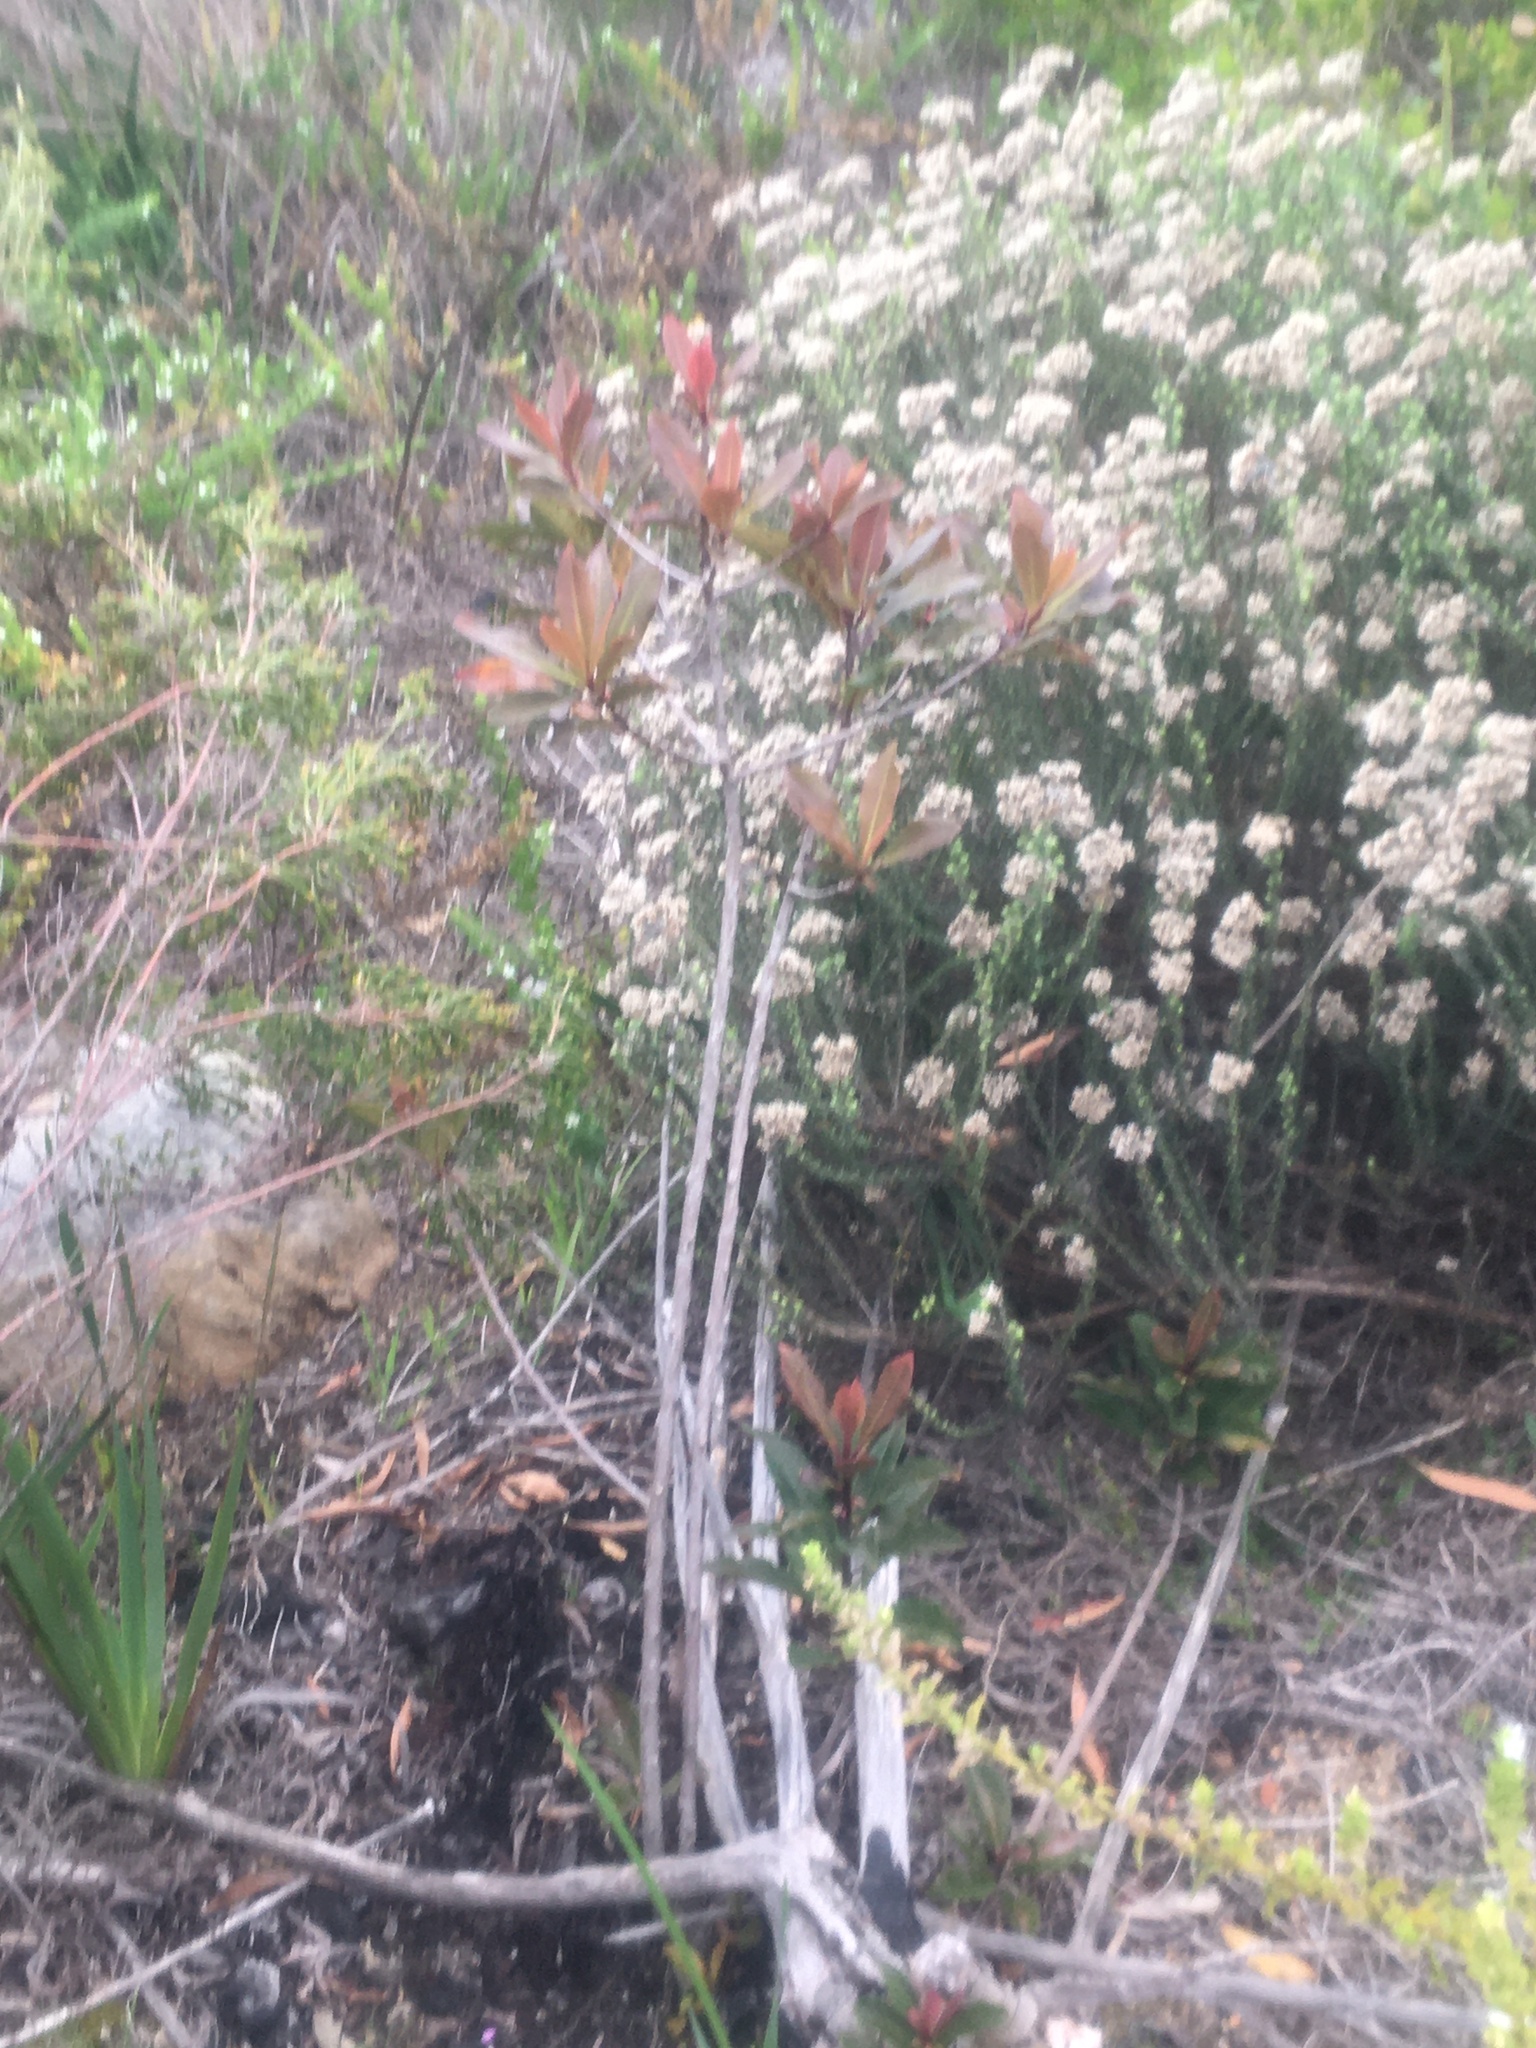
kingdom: Plantae
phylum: Tracheophyta
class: Magnoliopsida
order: Ericales
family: Primulaceae
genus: Myrsine
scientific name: Myrsine melanophloeos
